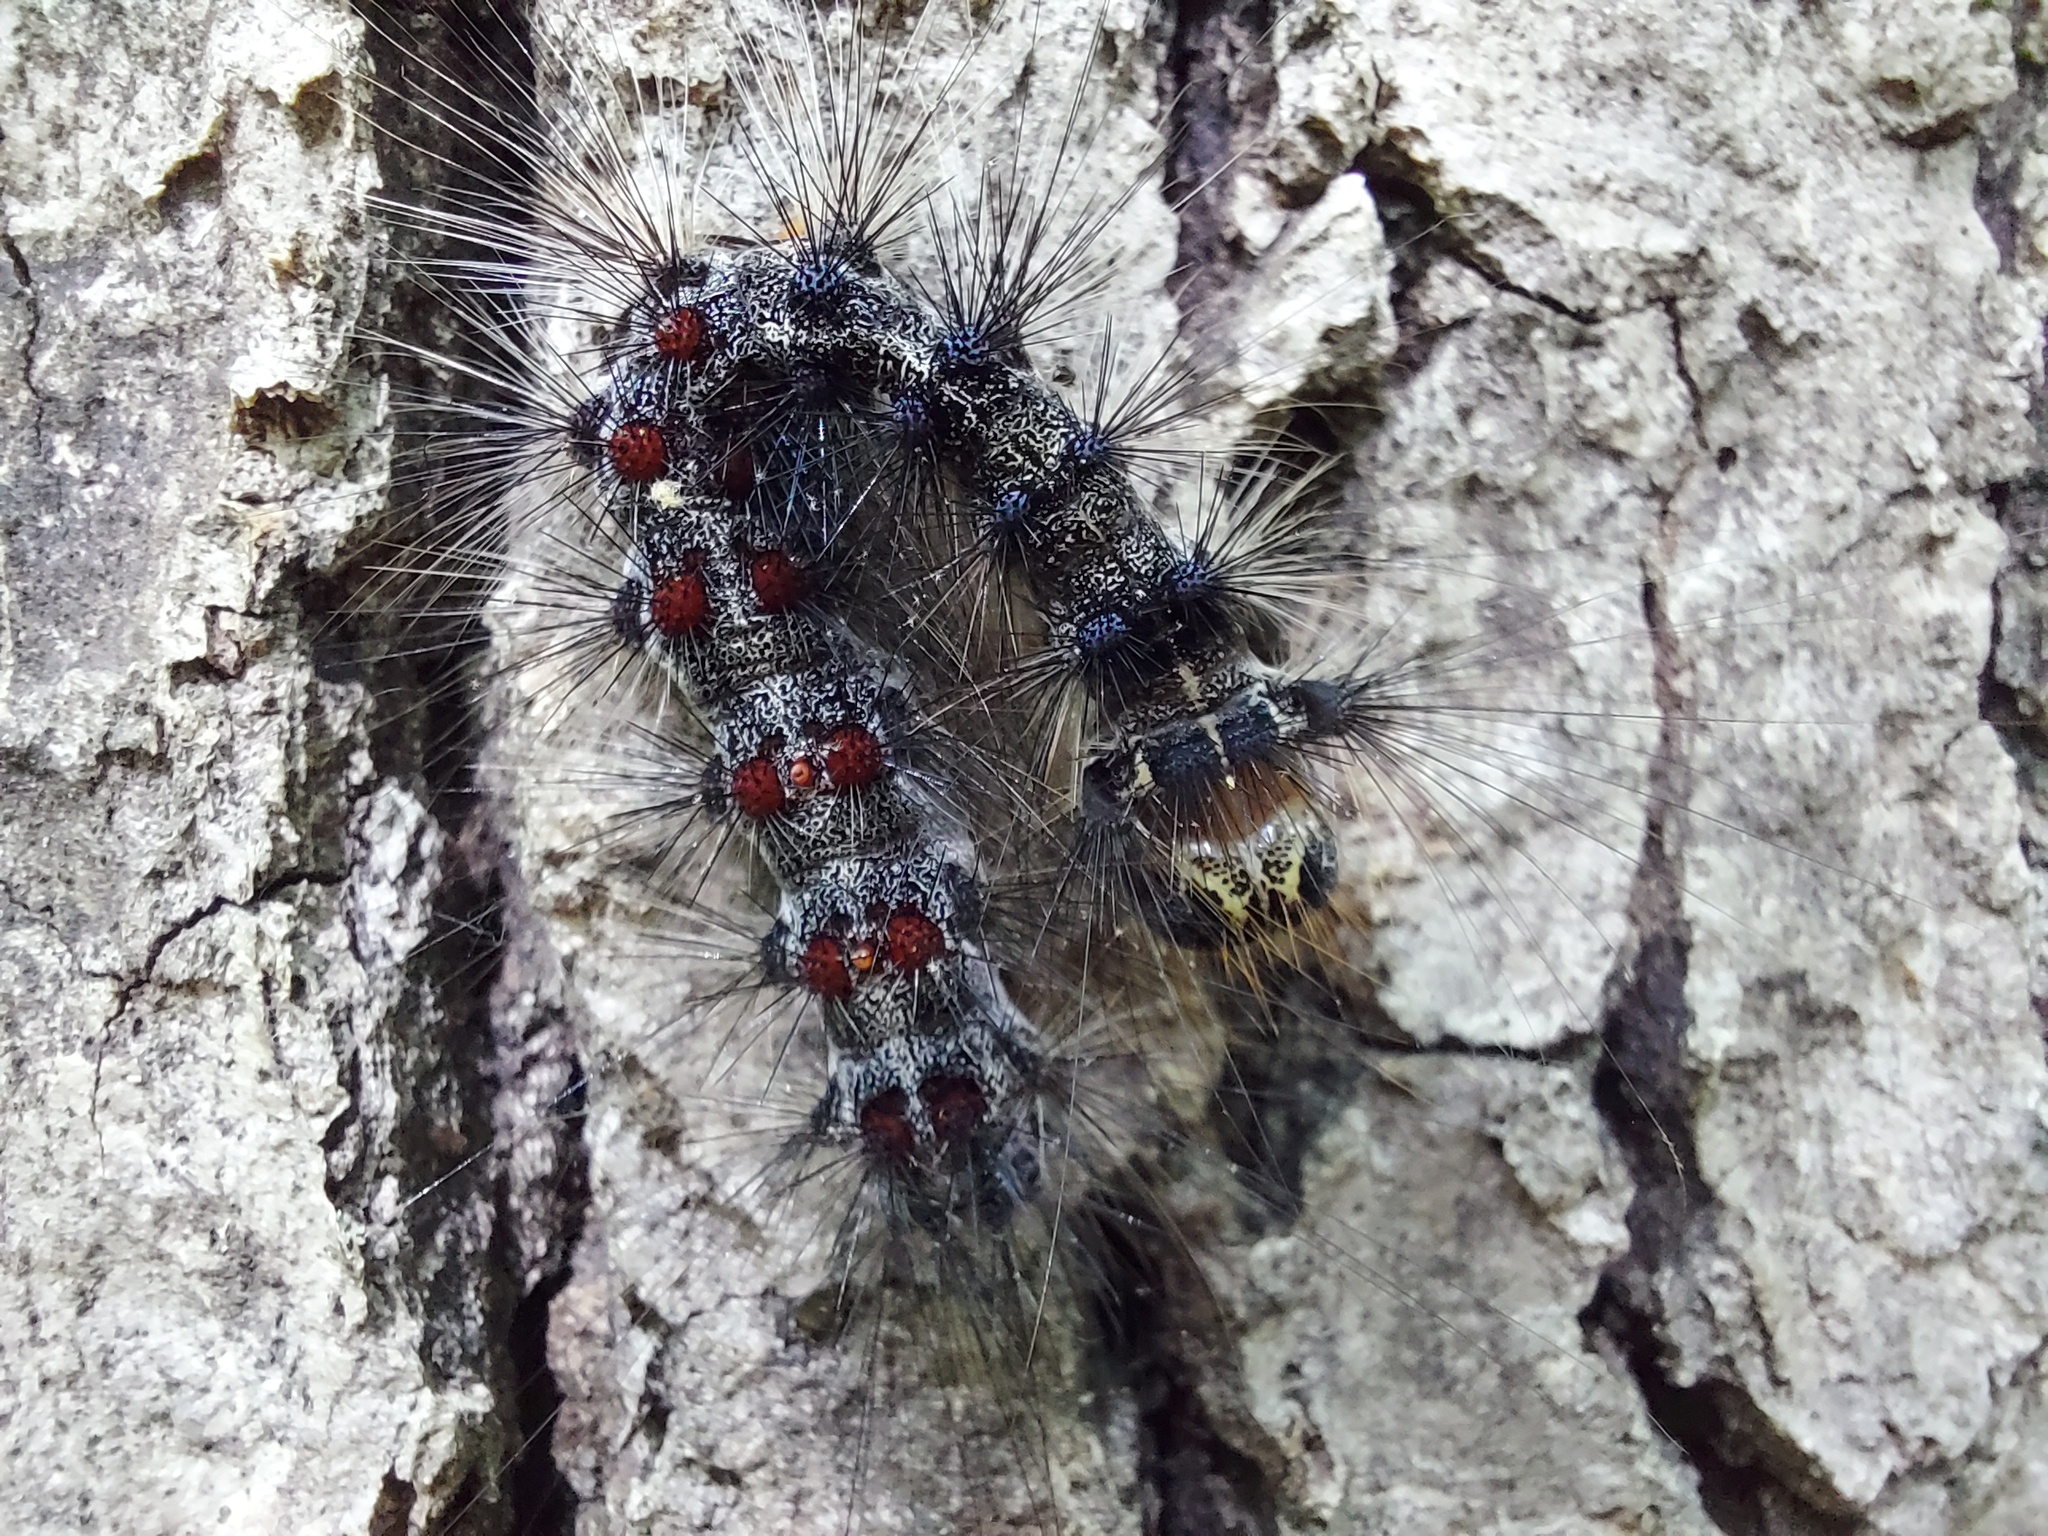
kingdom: Animalia
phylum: Arthropoda
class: Insecta
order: Lepidoptera
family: Erebidae
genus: Lymantria
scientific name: Lymantria dispar
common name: Gypsy moth
